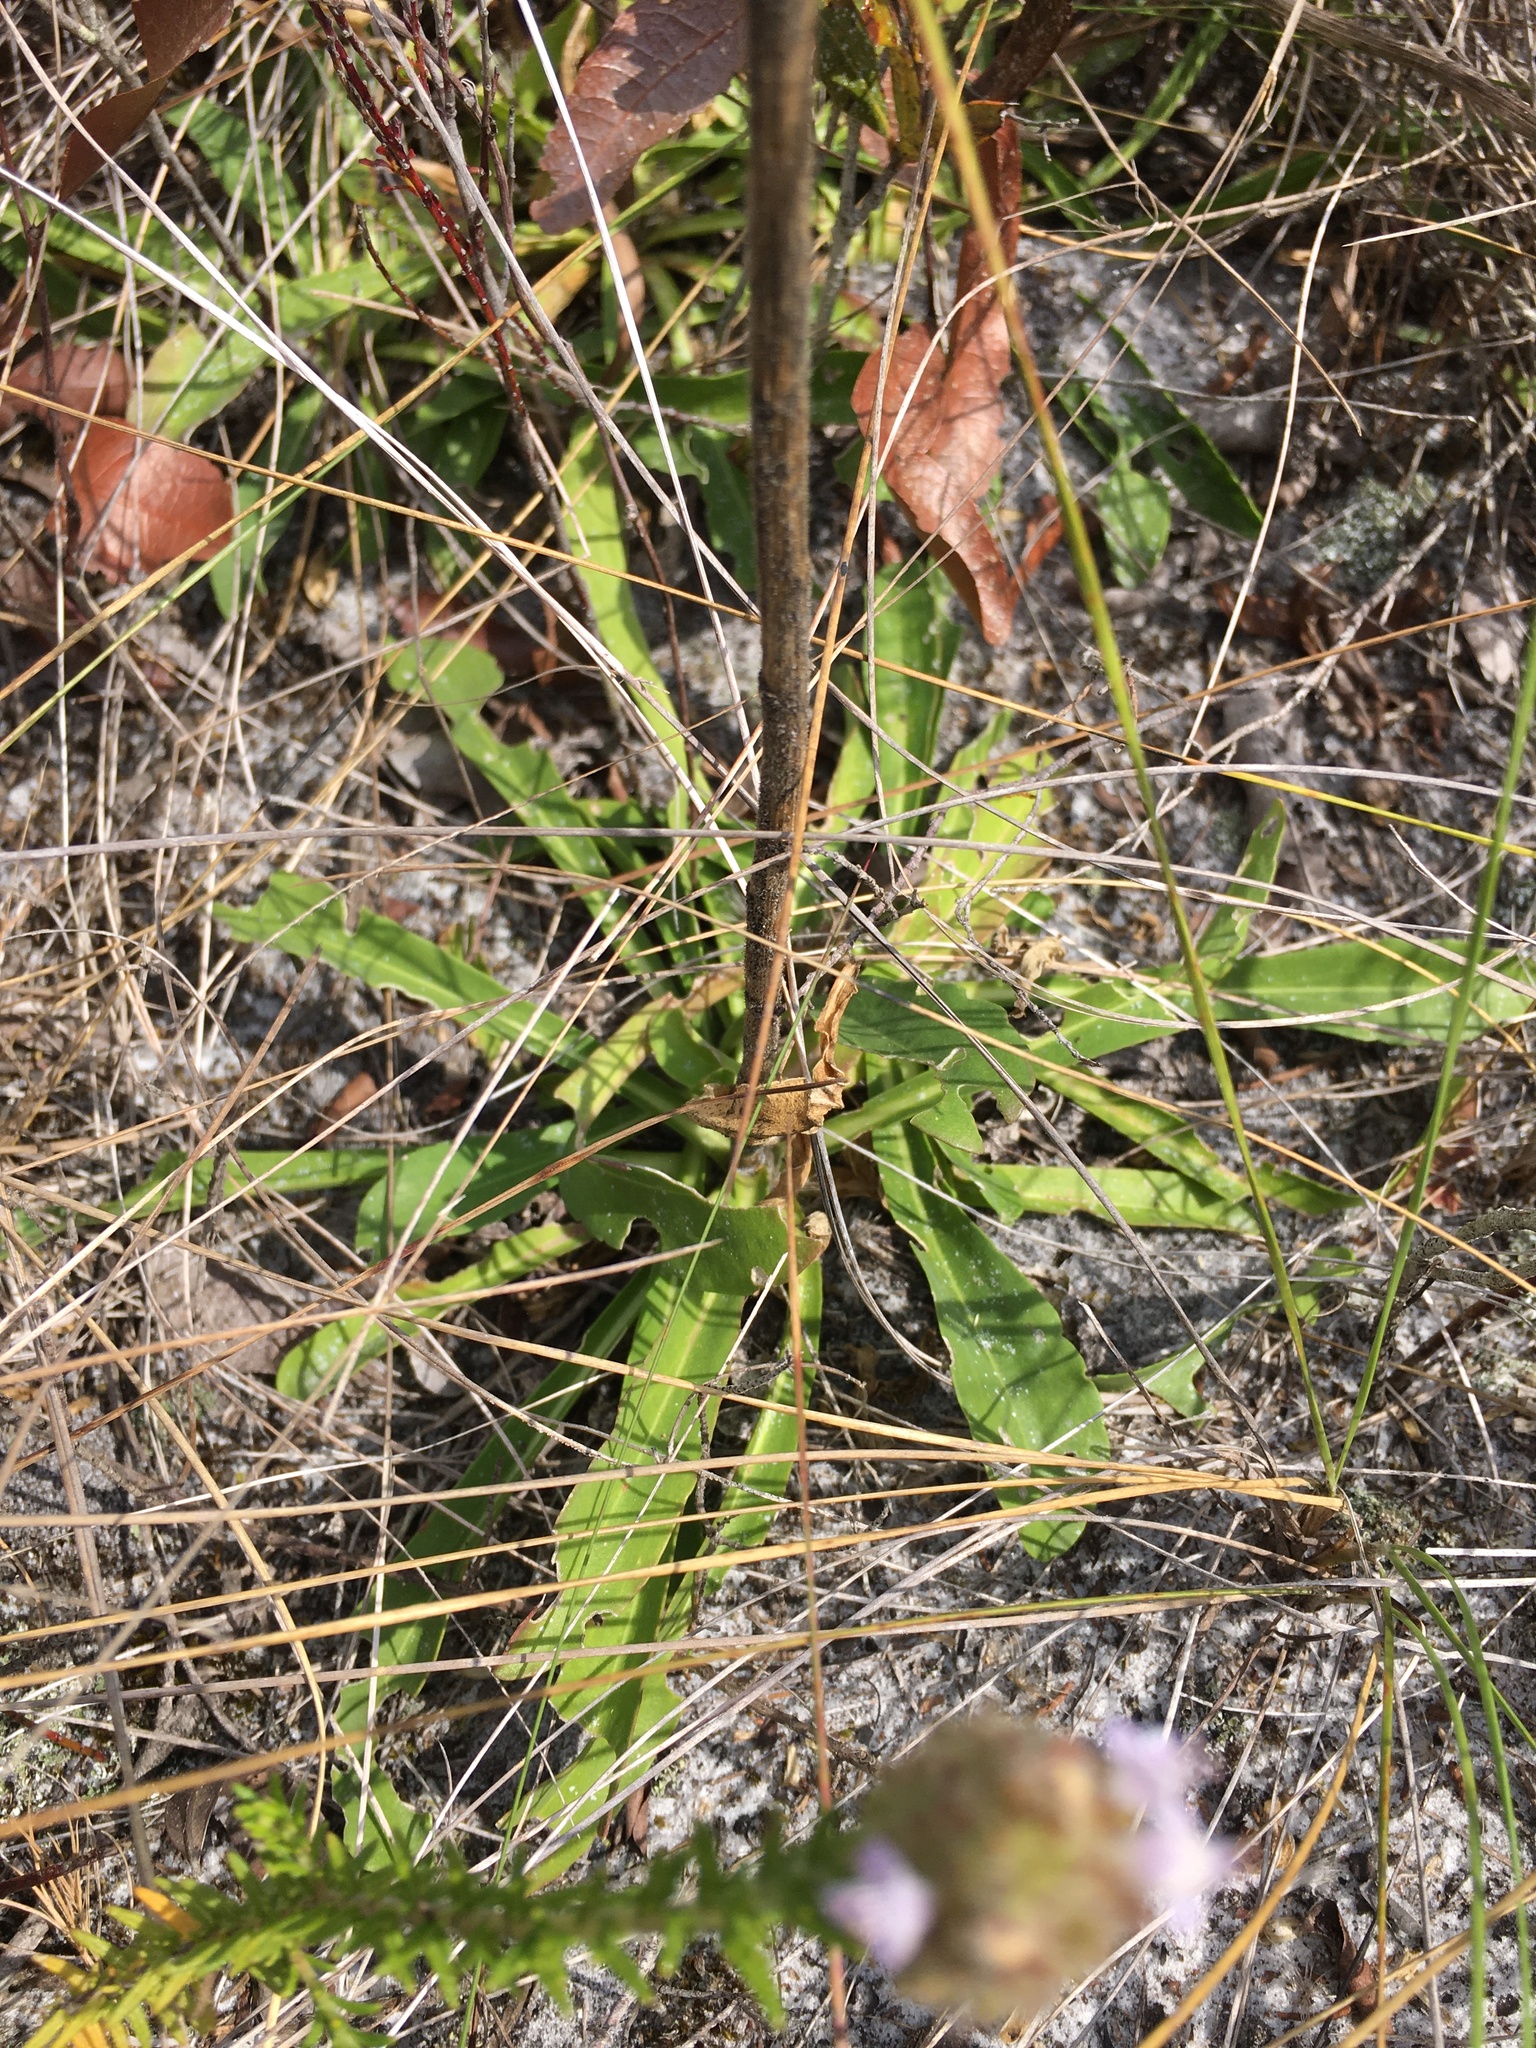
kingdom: Plantae
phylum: Tracheophyta
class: Magnoliopsida
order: Asterales
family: Asteraceae
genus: Carphephorus
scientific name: Carphephorus paniculatus
